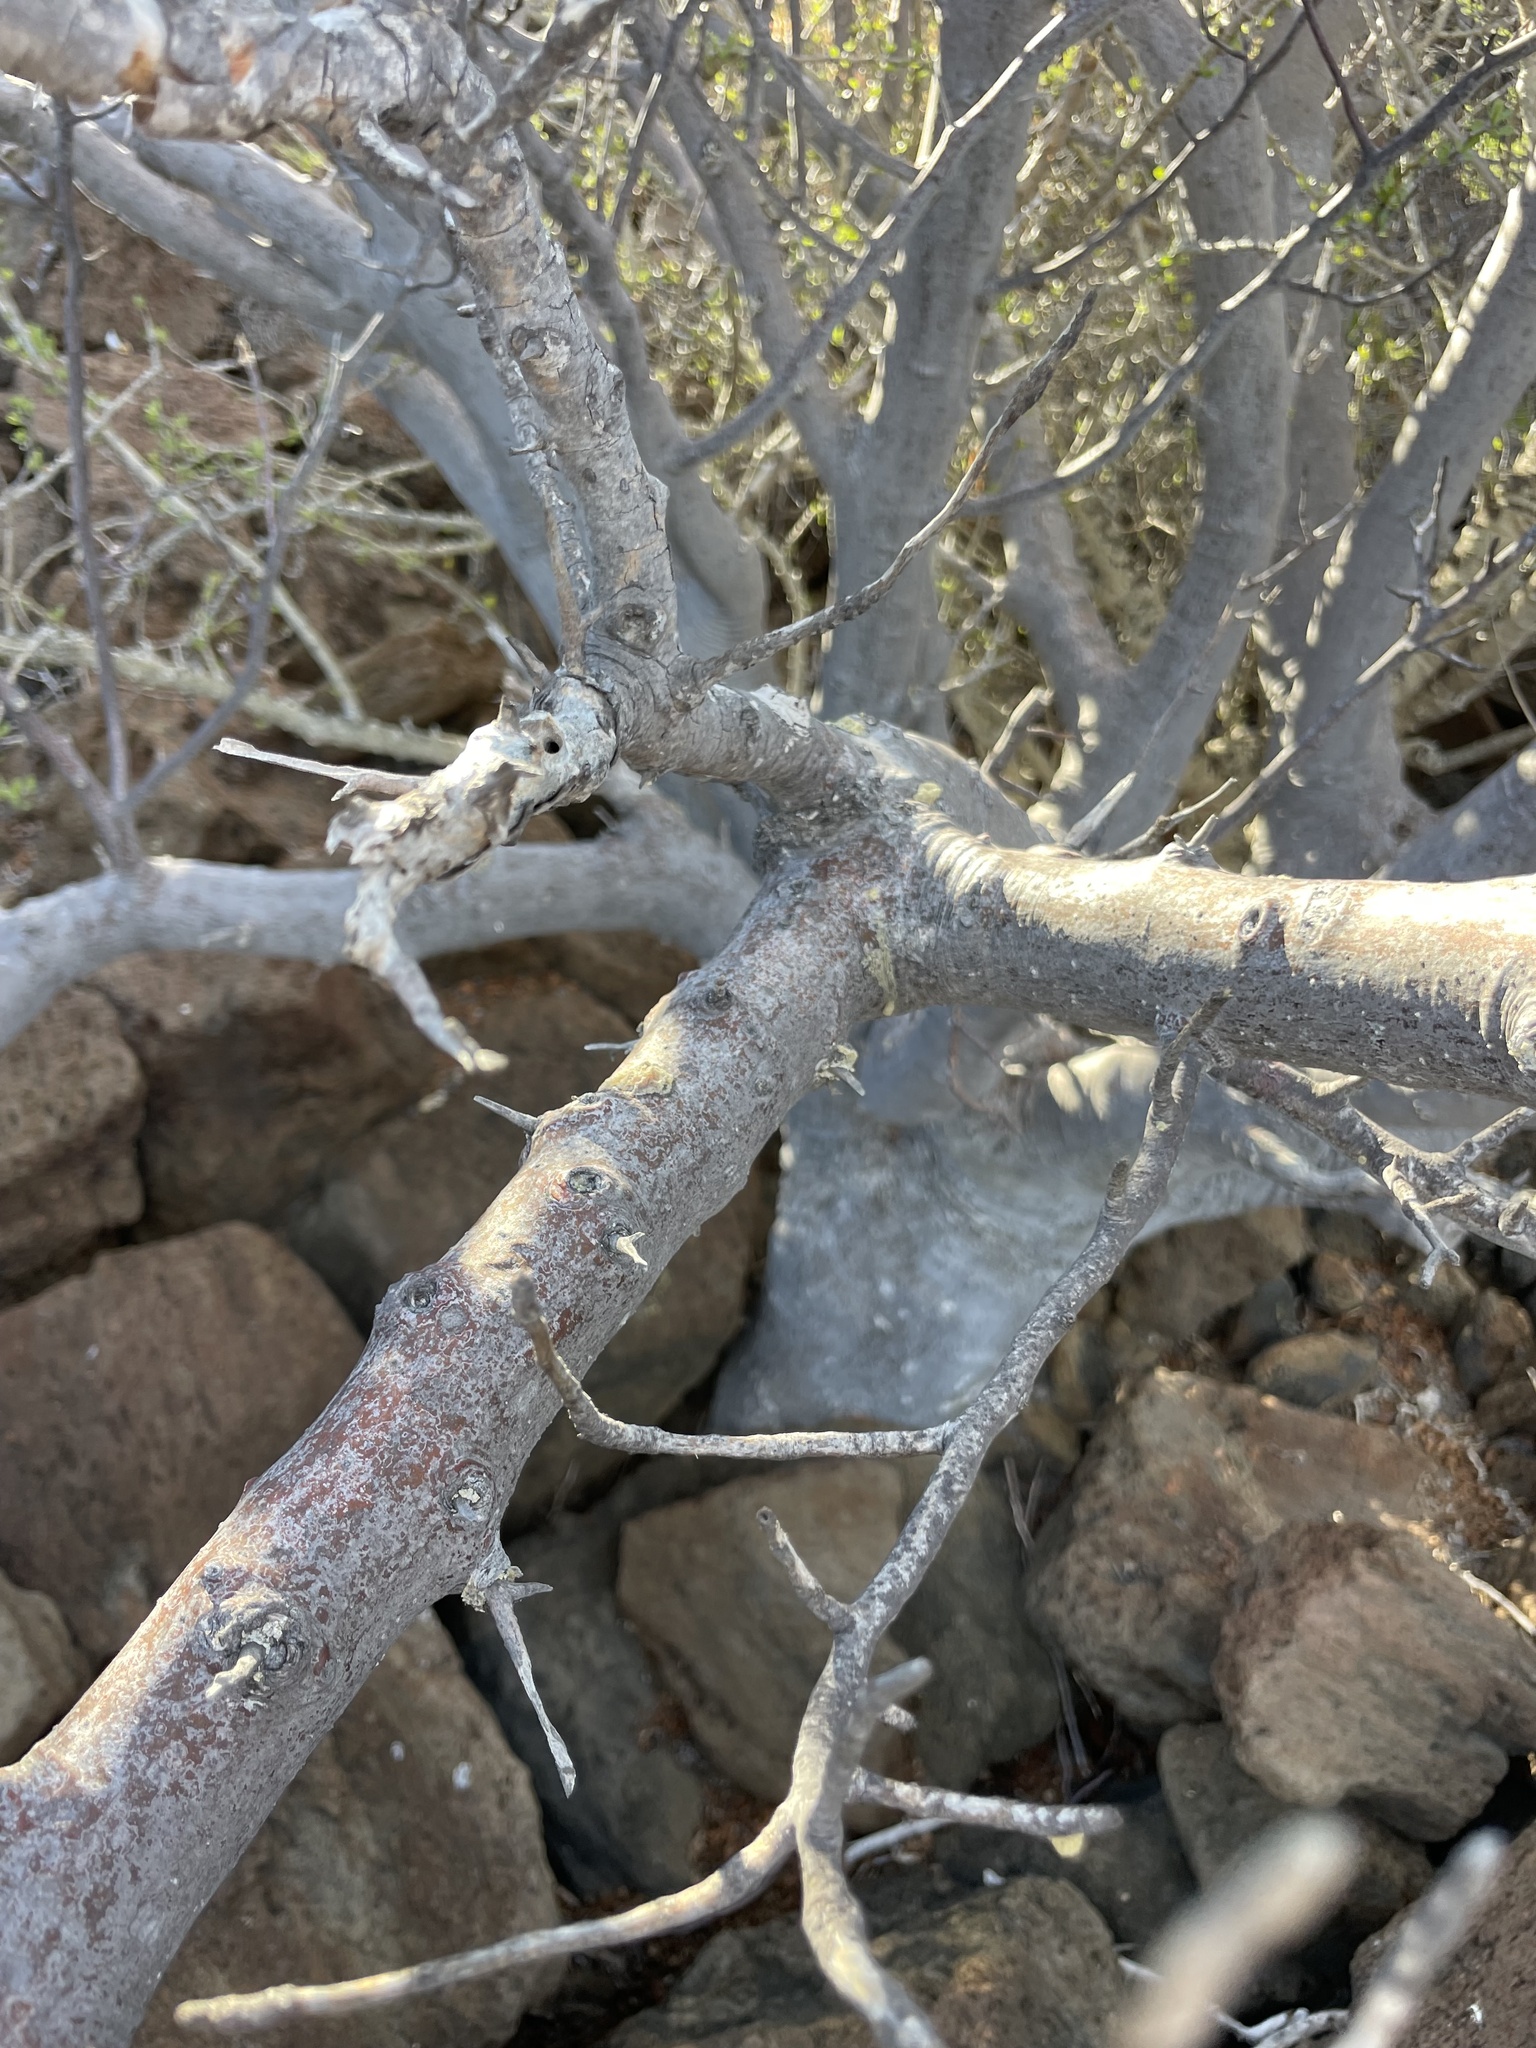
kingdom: Plantae
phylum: Tracheophyta
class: Magnoliopsida
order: Sapindales
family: Burseraceae
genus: Bursera
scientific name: Bursera hindsiana
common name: Red elephant tree
